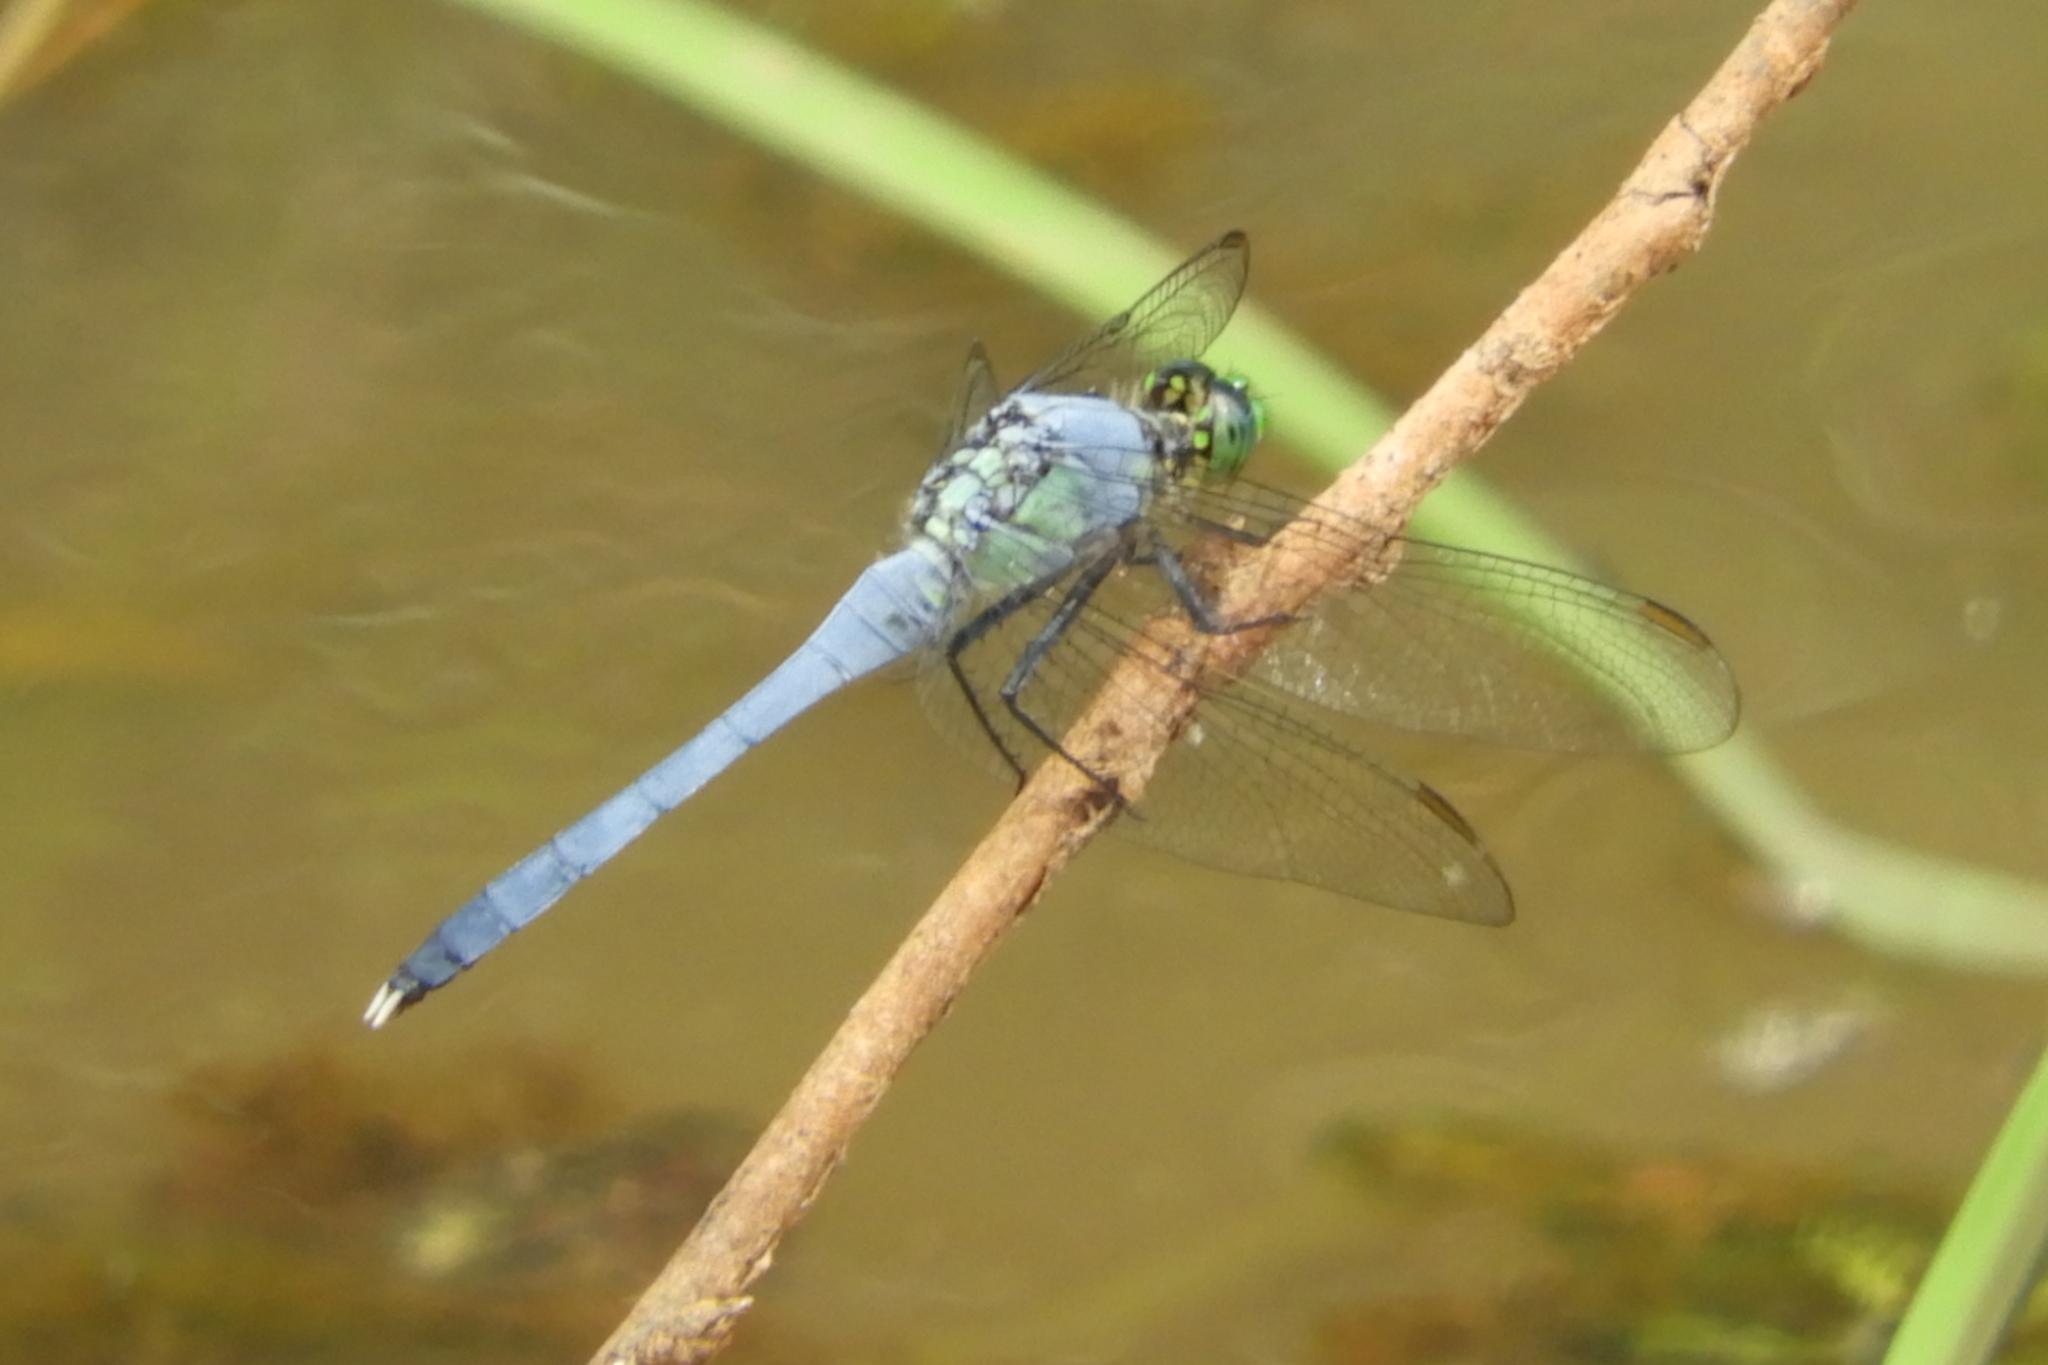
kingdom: Animalia
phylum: Arthropoda
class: Insecta
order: Odonata
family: Libellulidae
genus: Erythemis
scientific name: Erythemis simplicicollis
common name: Eastern pondhawk
